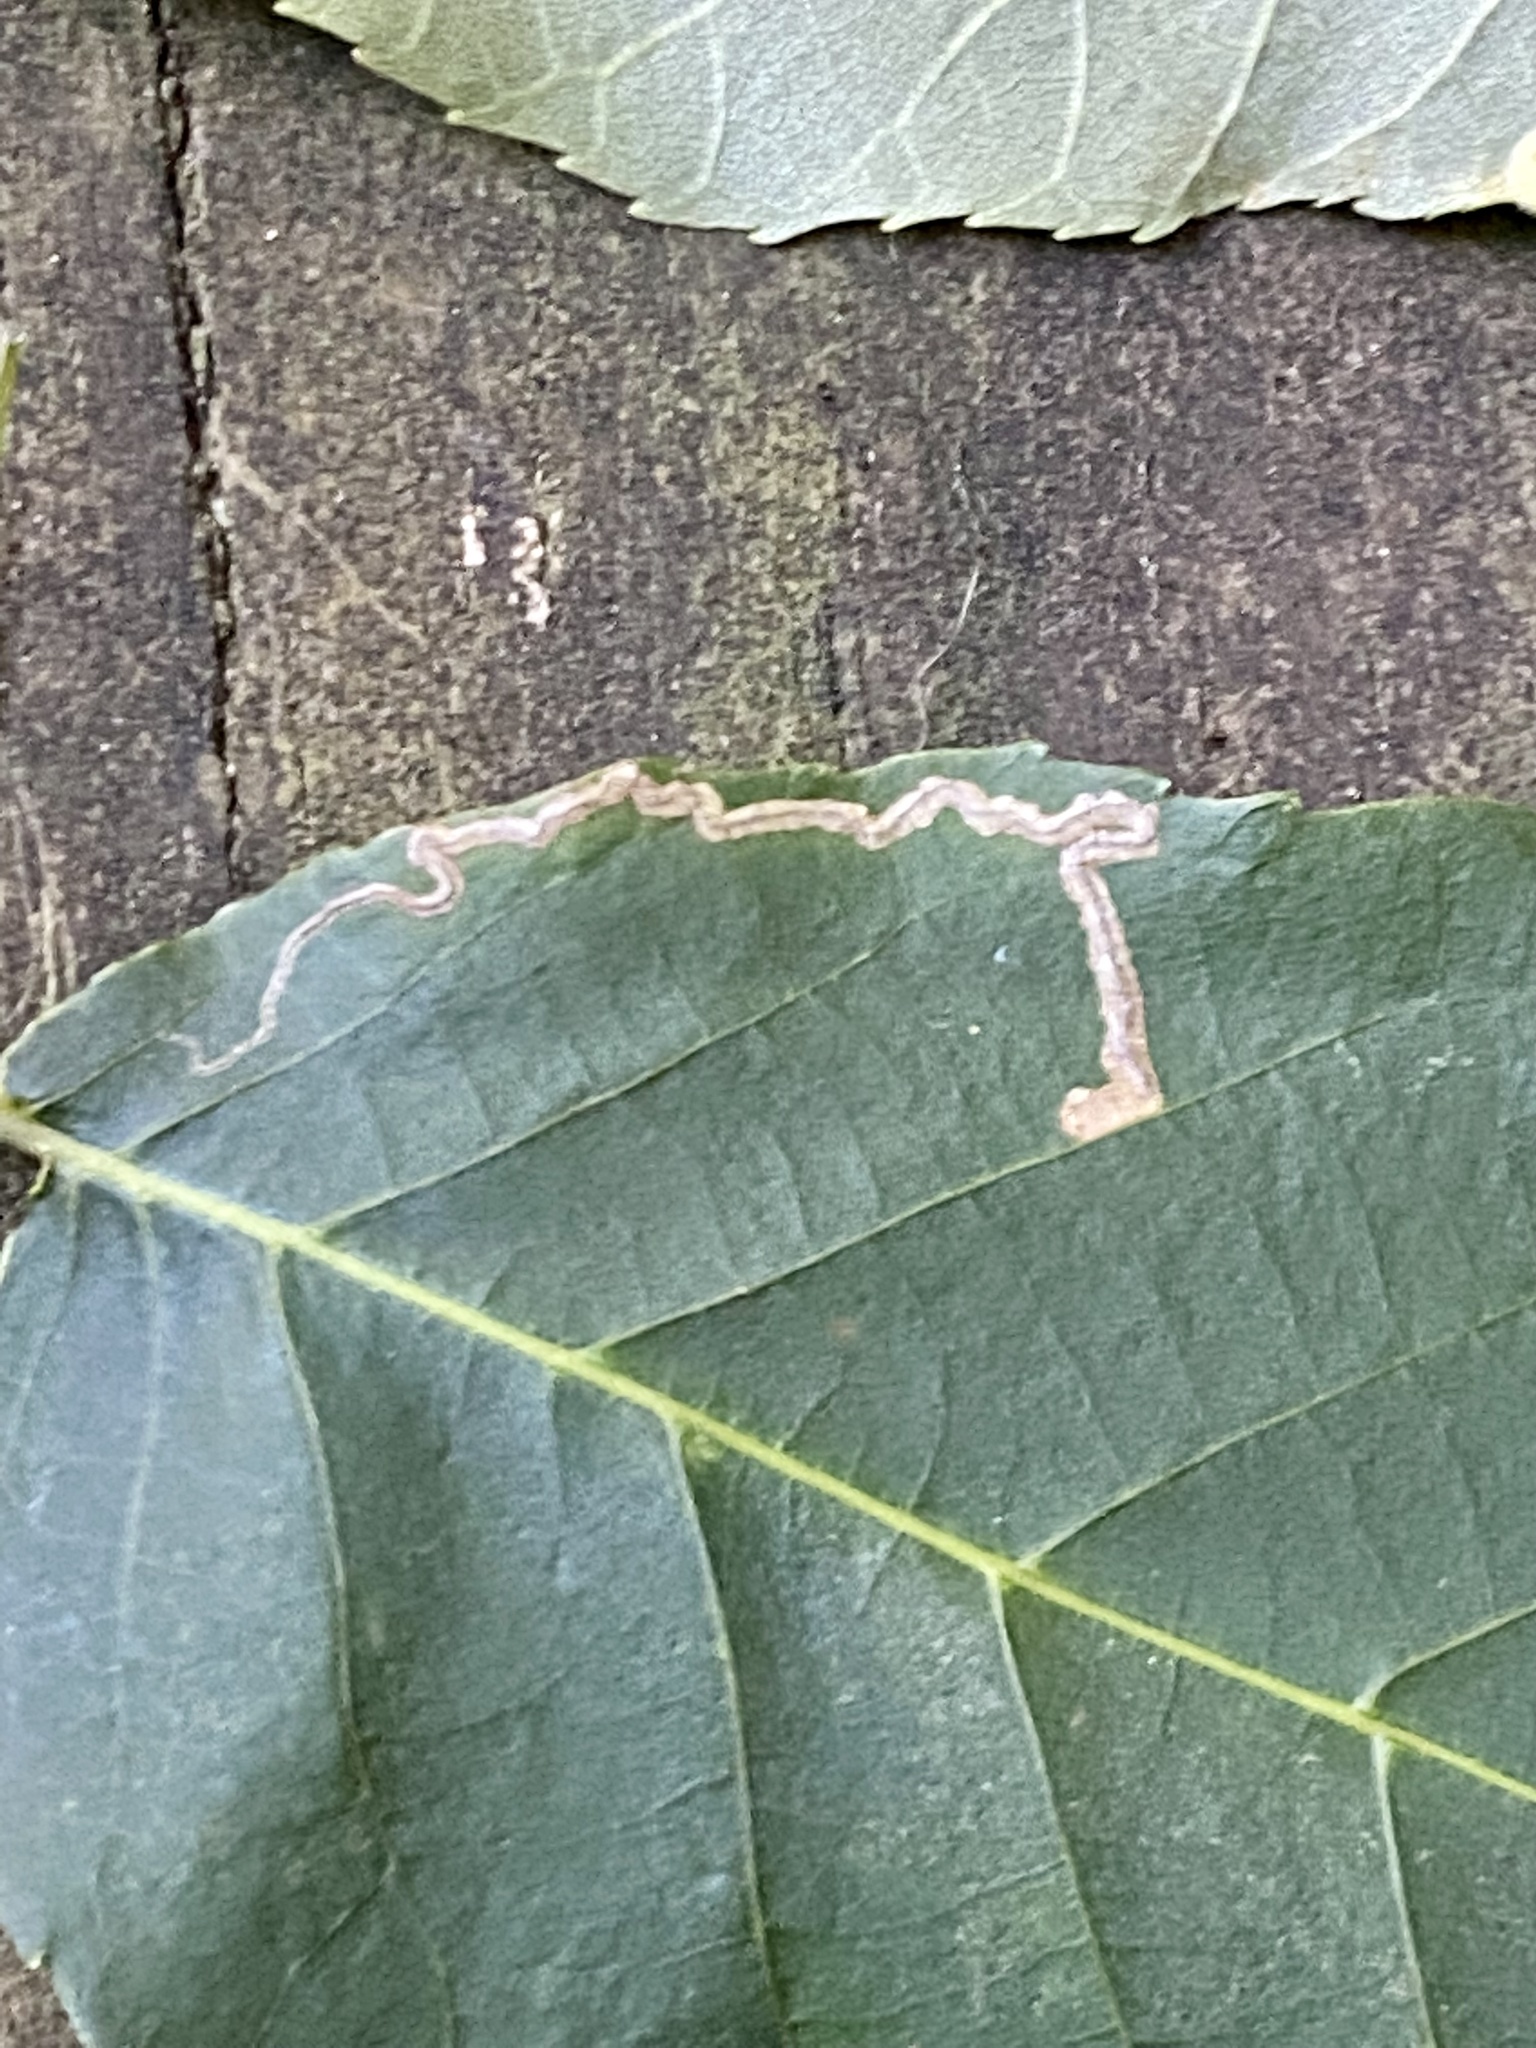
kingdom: Animalia
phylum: Arthropoda
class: Insecta
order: Lepidoptera
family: Nepticulidae
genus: Stigmella
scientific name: Stigmella caryaefoliella
